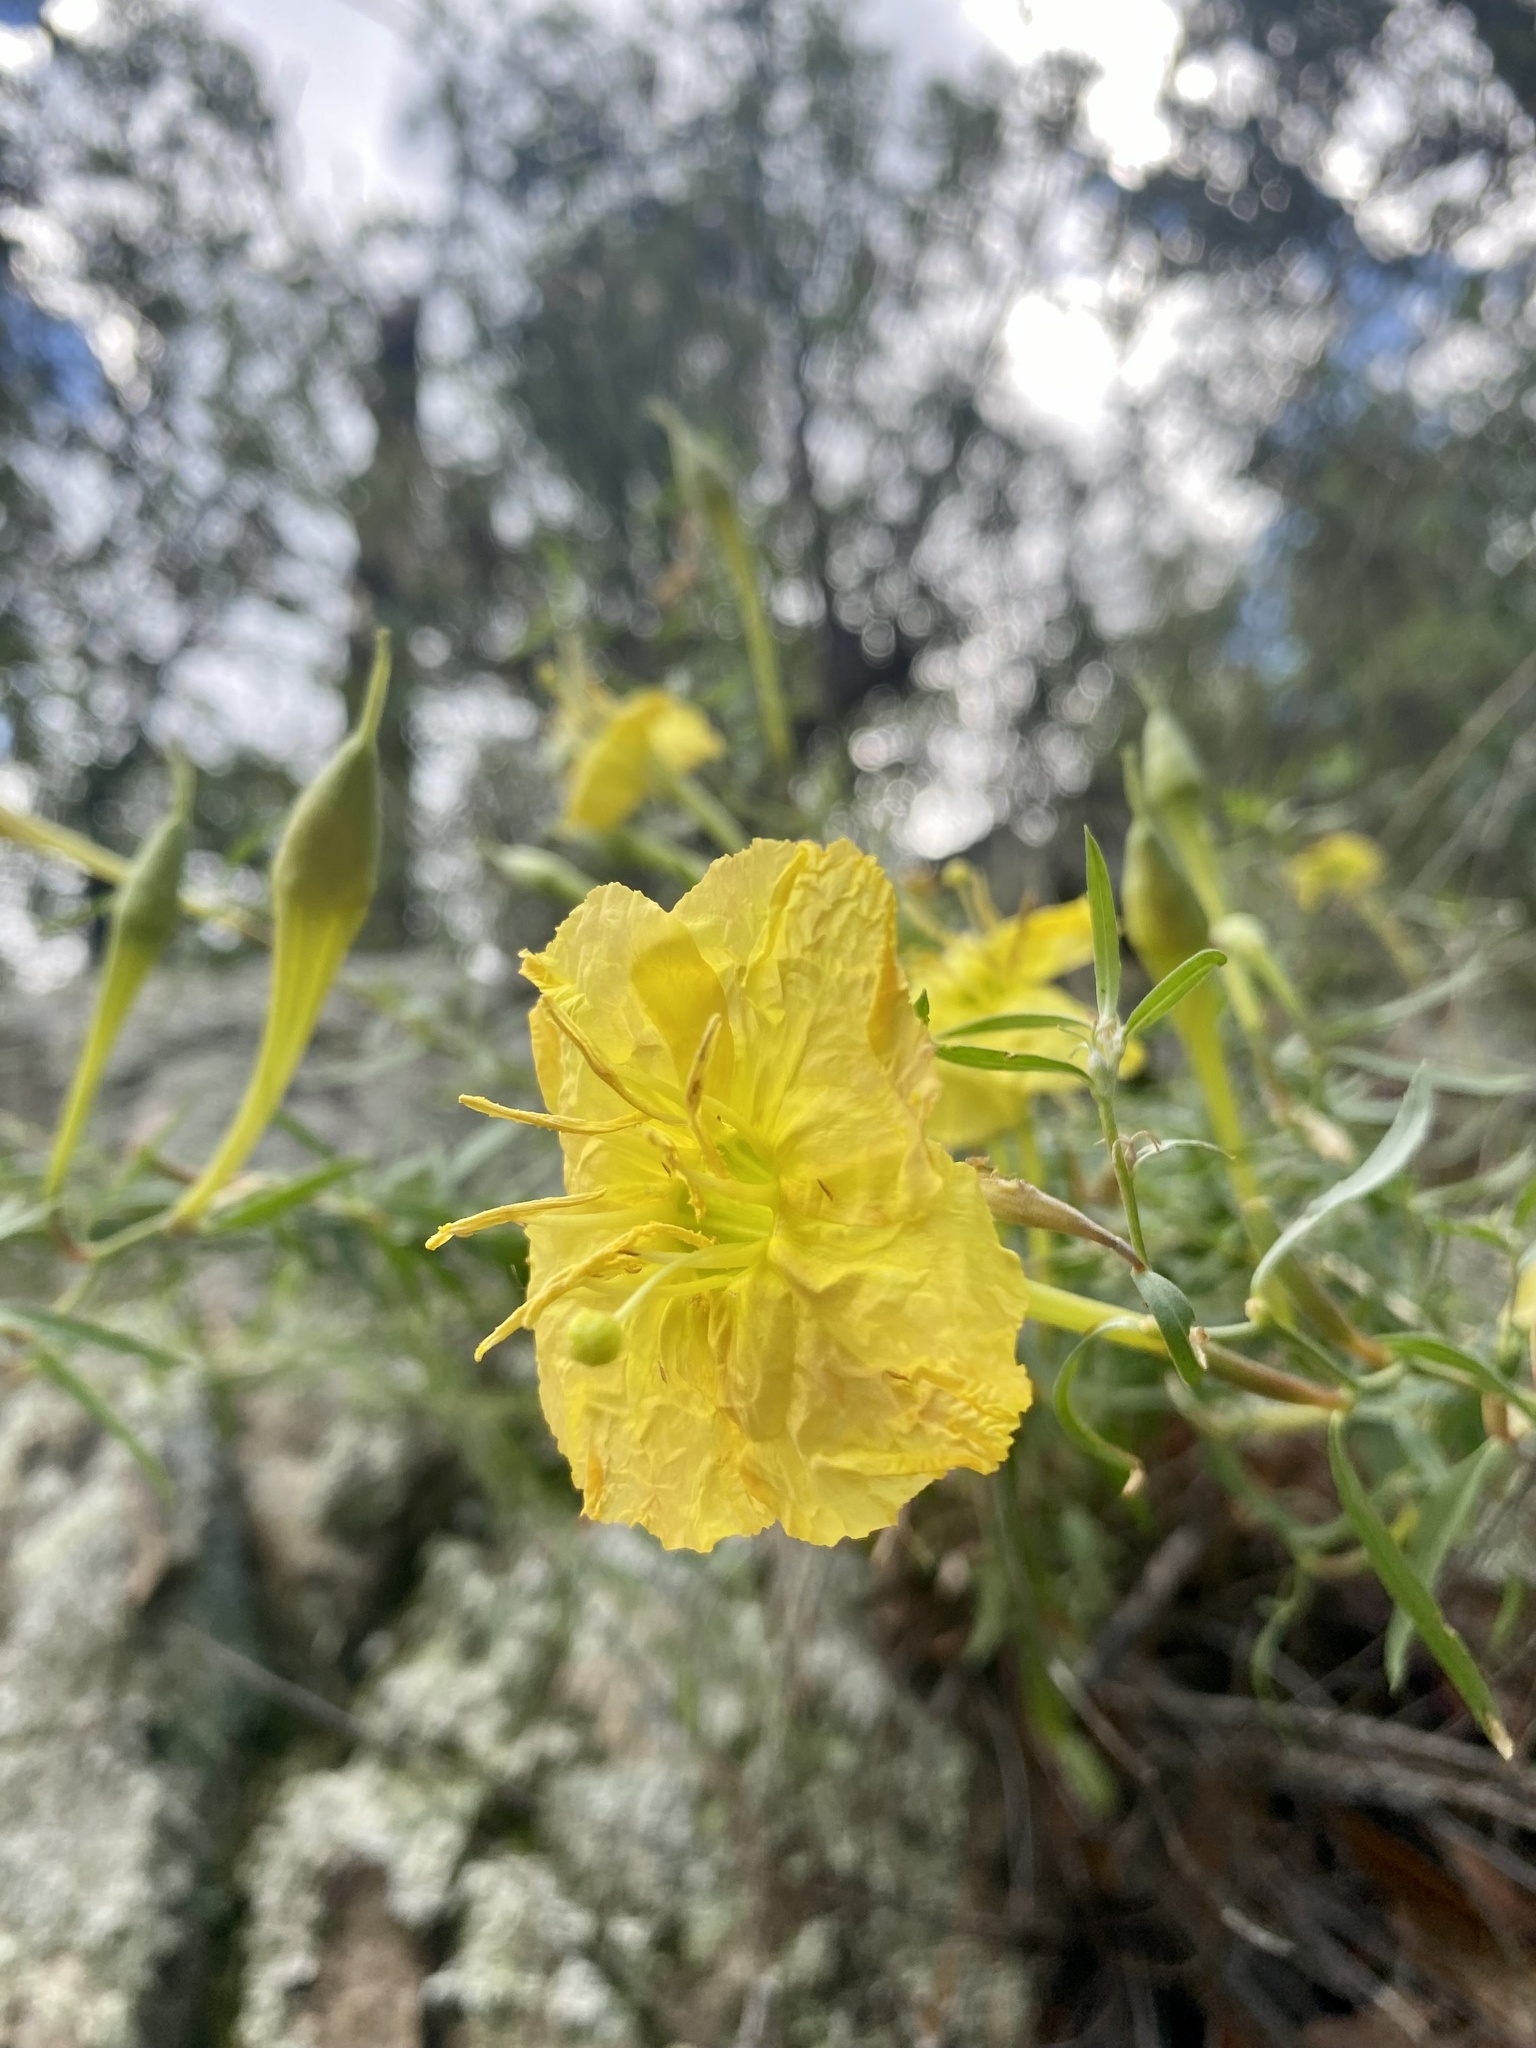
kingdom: Plantae
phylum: Tracheophyta
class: Magnoliopsida
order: Myrtales
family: Onagraceae
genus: Oenothera
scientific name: Oenothera toumeyi
